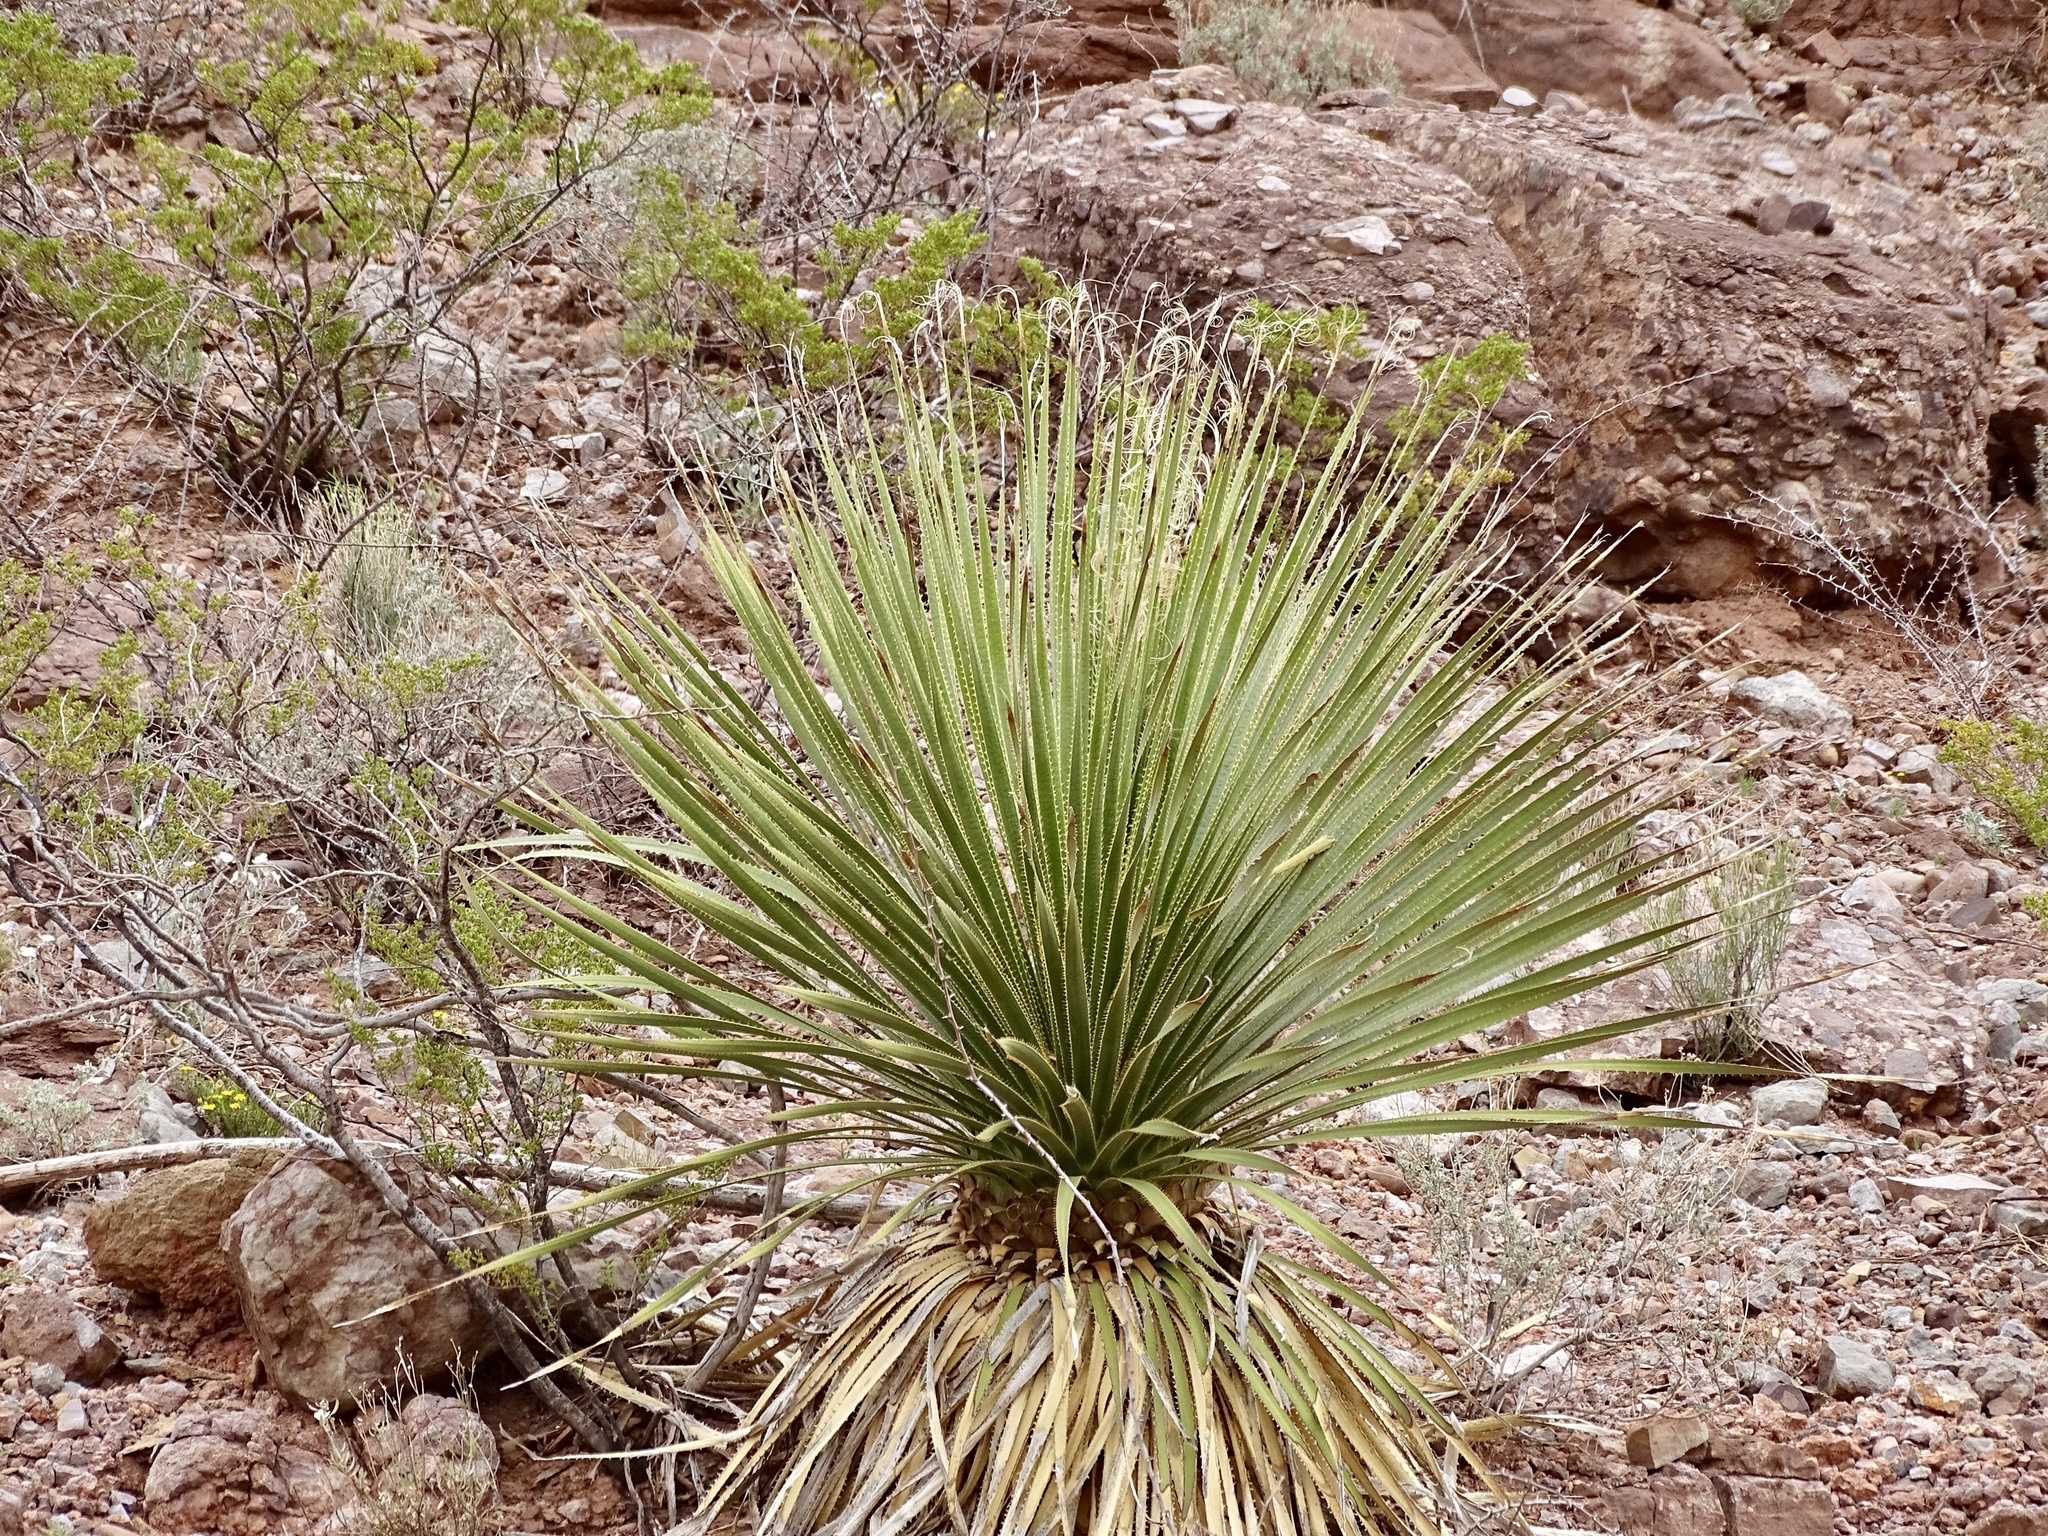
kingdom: Plantae
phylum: Tracheophyta
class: Liliopsida
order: Asparagales
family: Asparagaceae
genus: Dasylirion
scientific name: Dasylirion wheeleri
